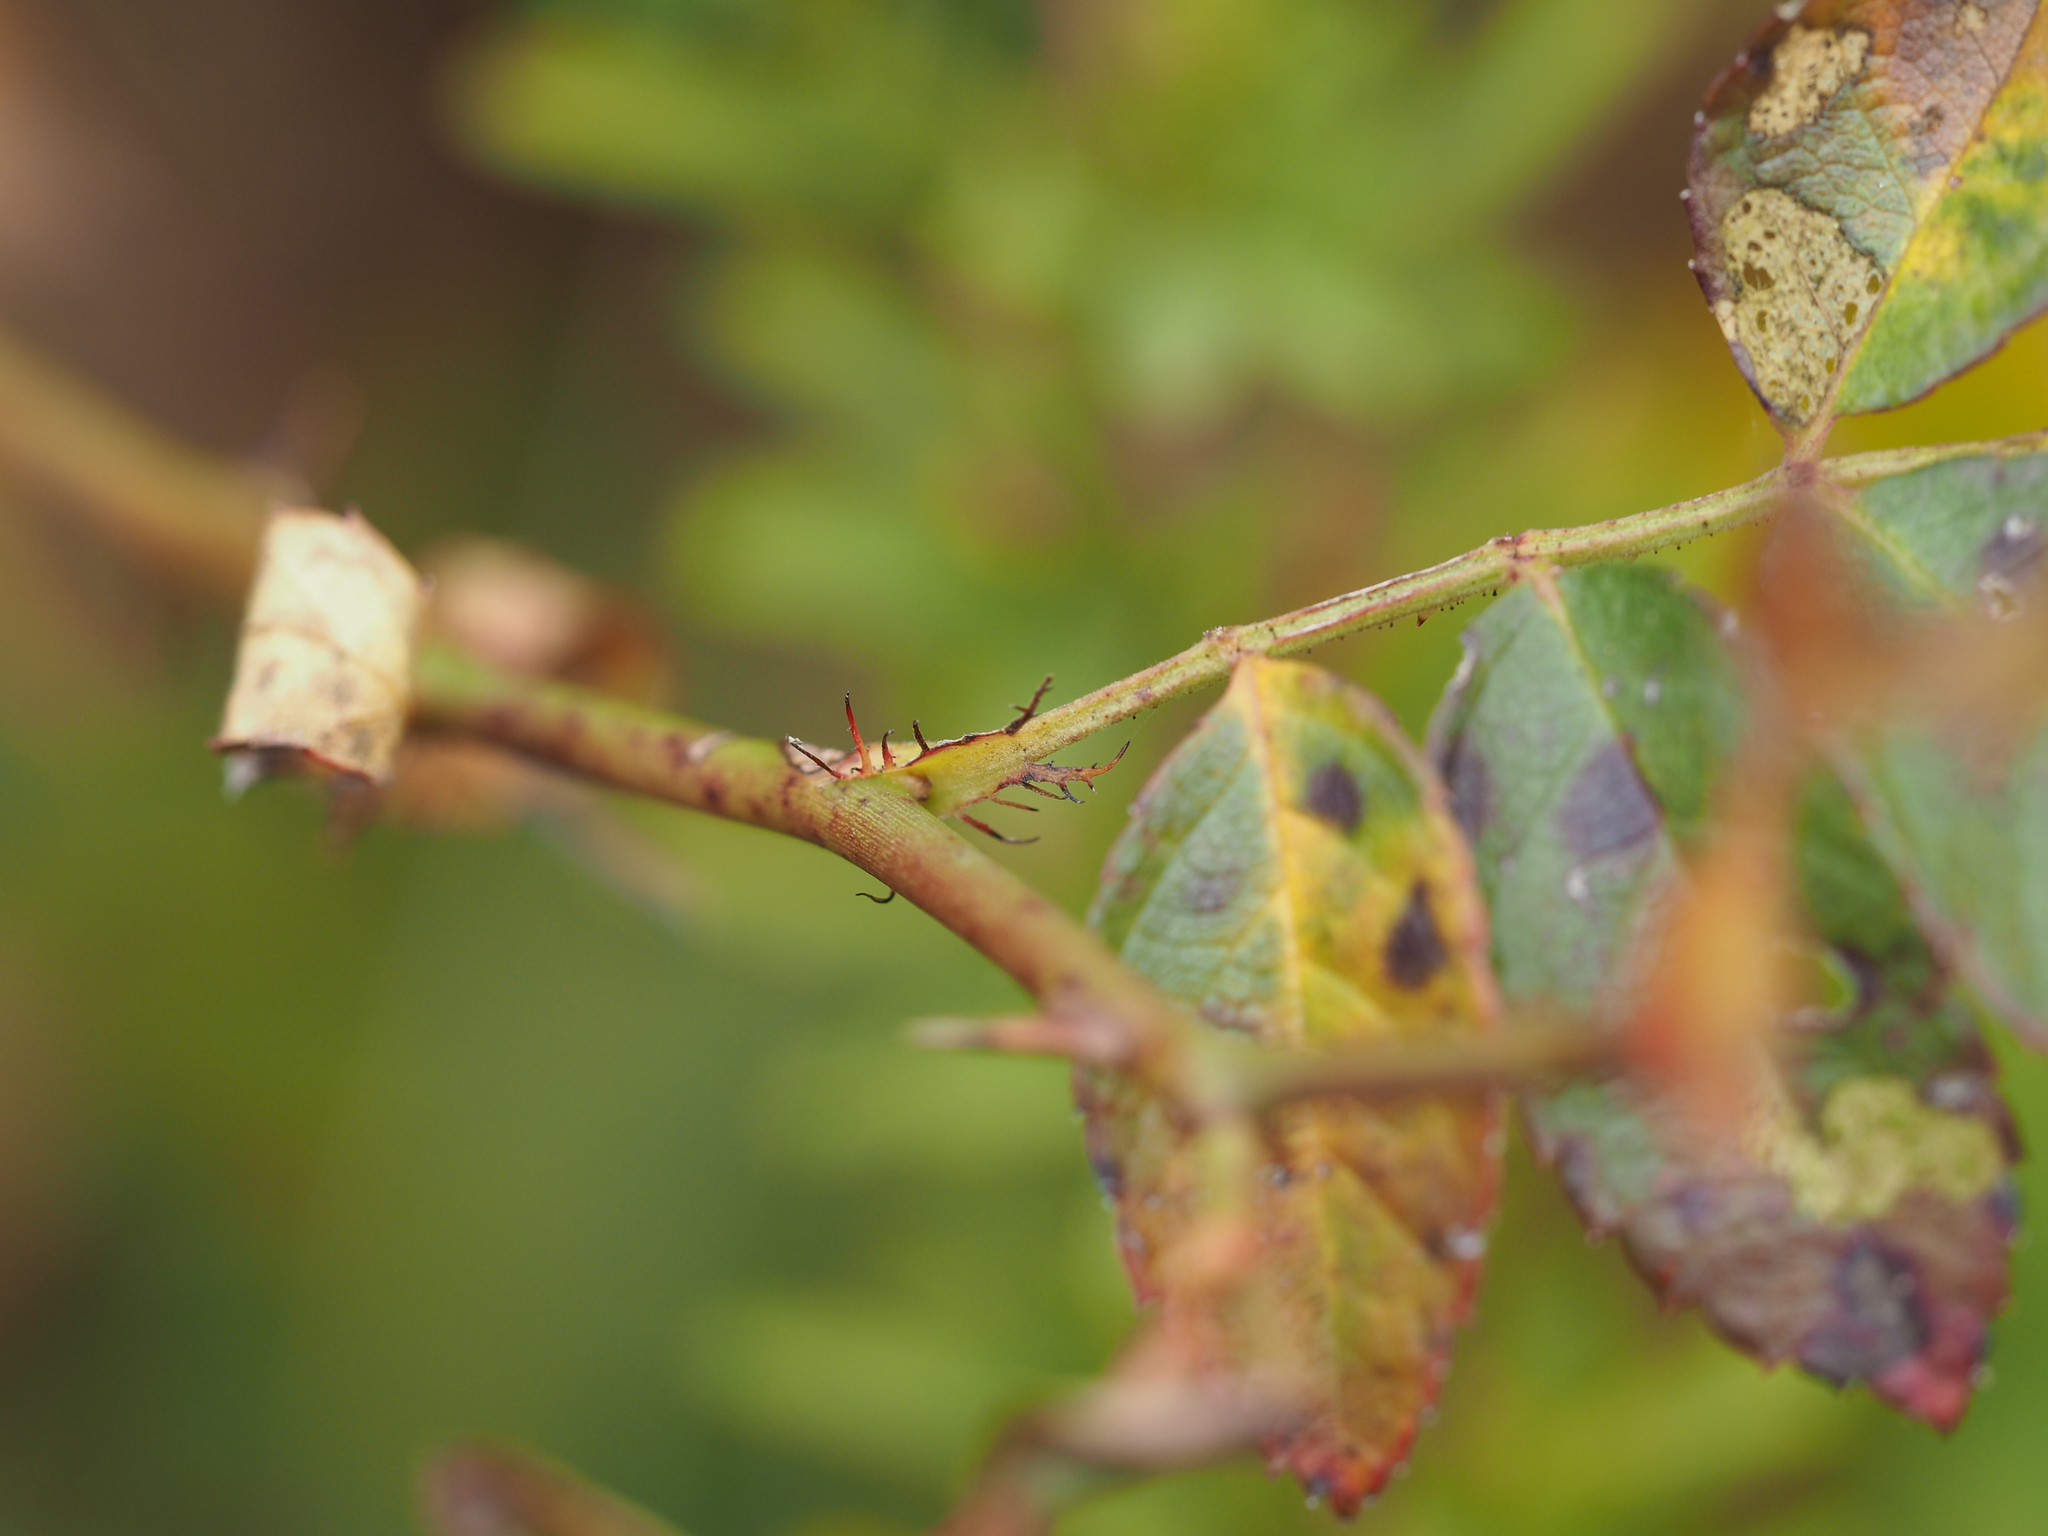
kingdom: Plantae
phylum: Tracheophyta
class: Magnoliopsida
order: Rosales
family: Rosaceae
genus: Rosa
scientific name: Rosa multiflora
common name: Multiflora rose
